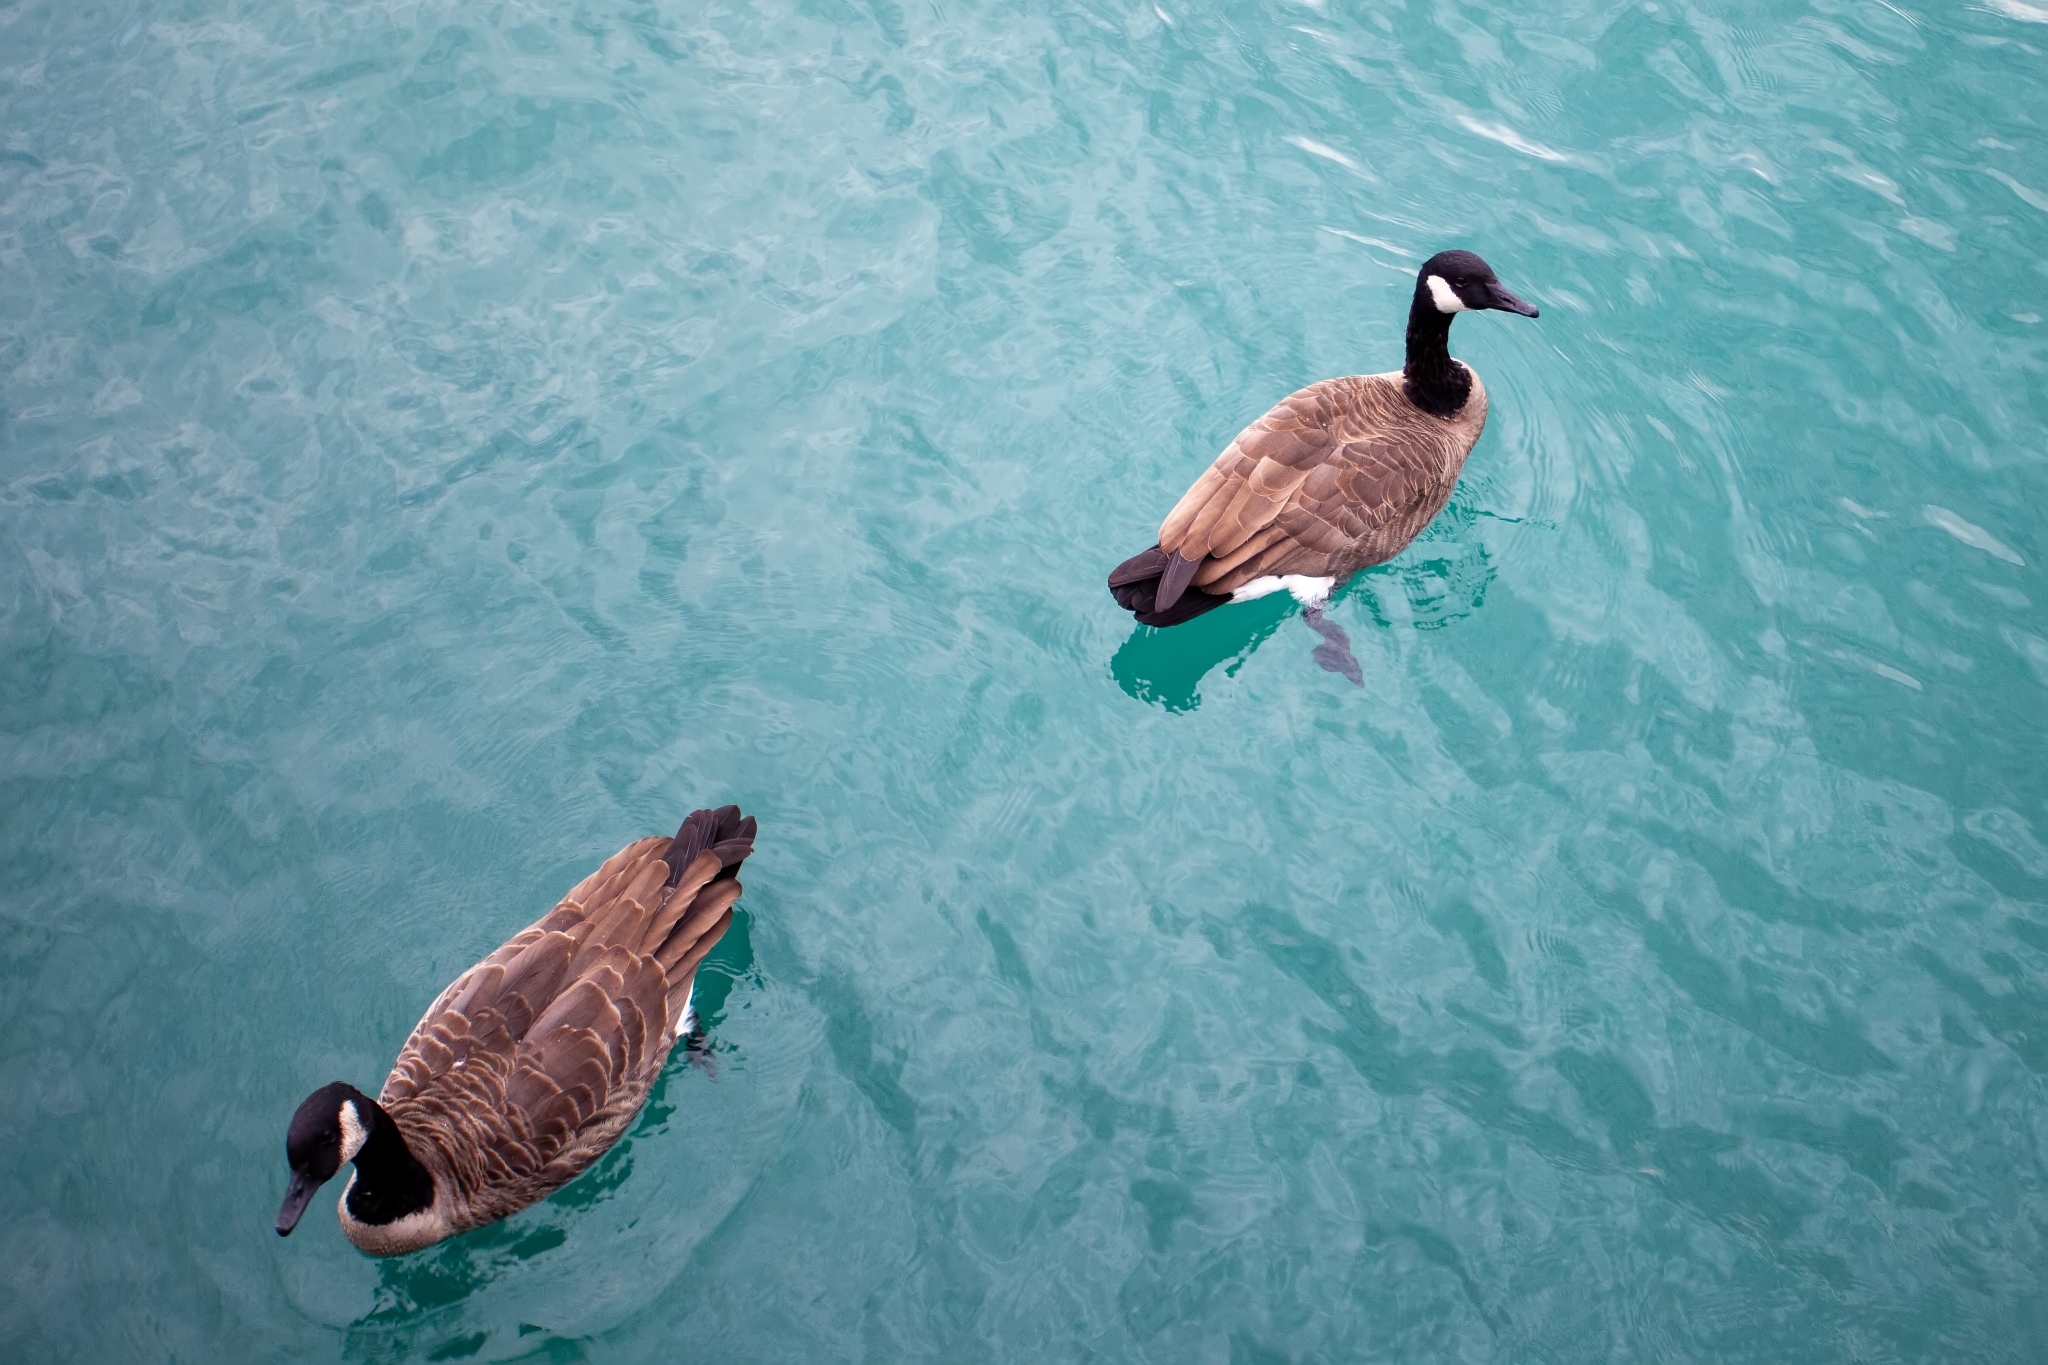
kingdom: Animalia
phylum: Chordata
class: Aves
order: Anseriformes
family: Anatidae
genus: Branta
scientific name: Branta canadensis
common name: Canada goose
